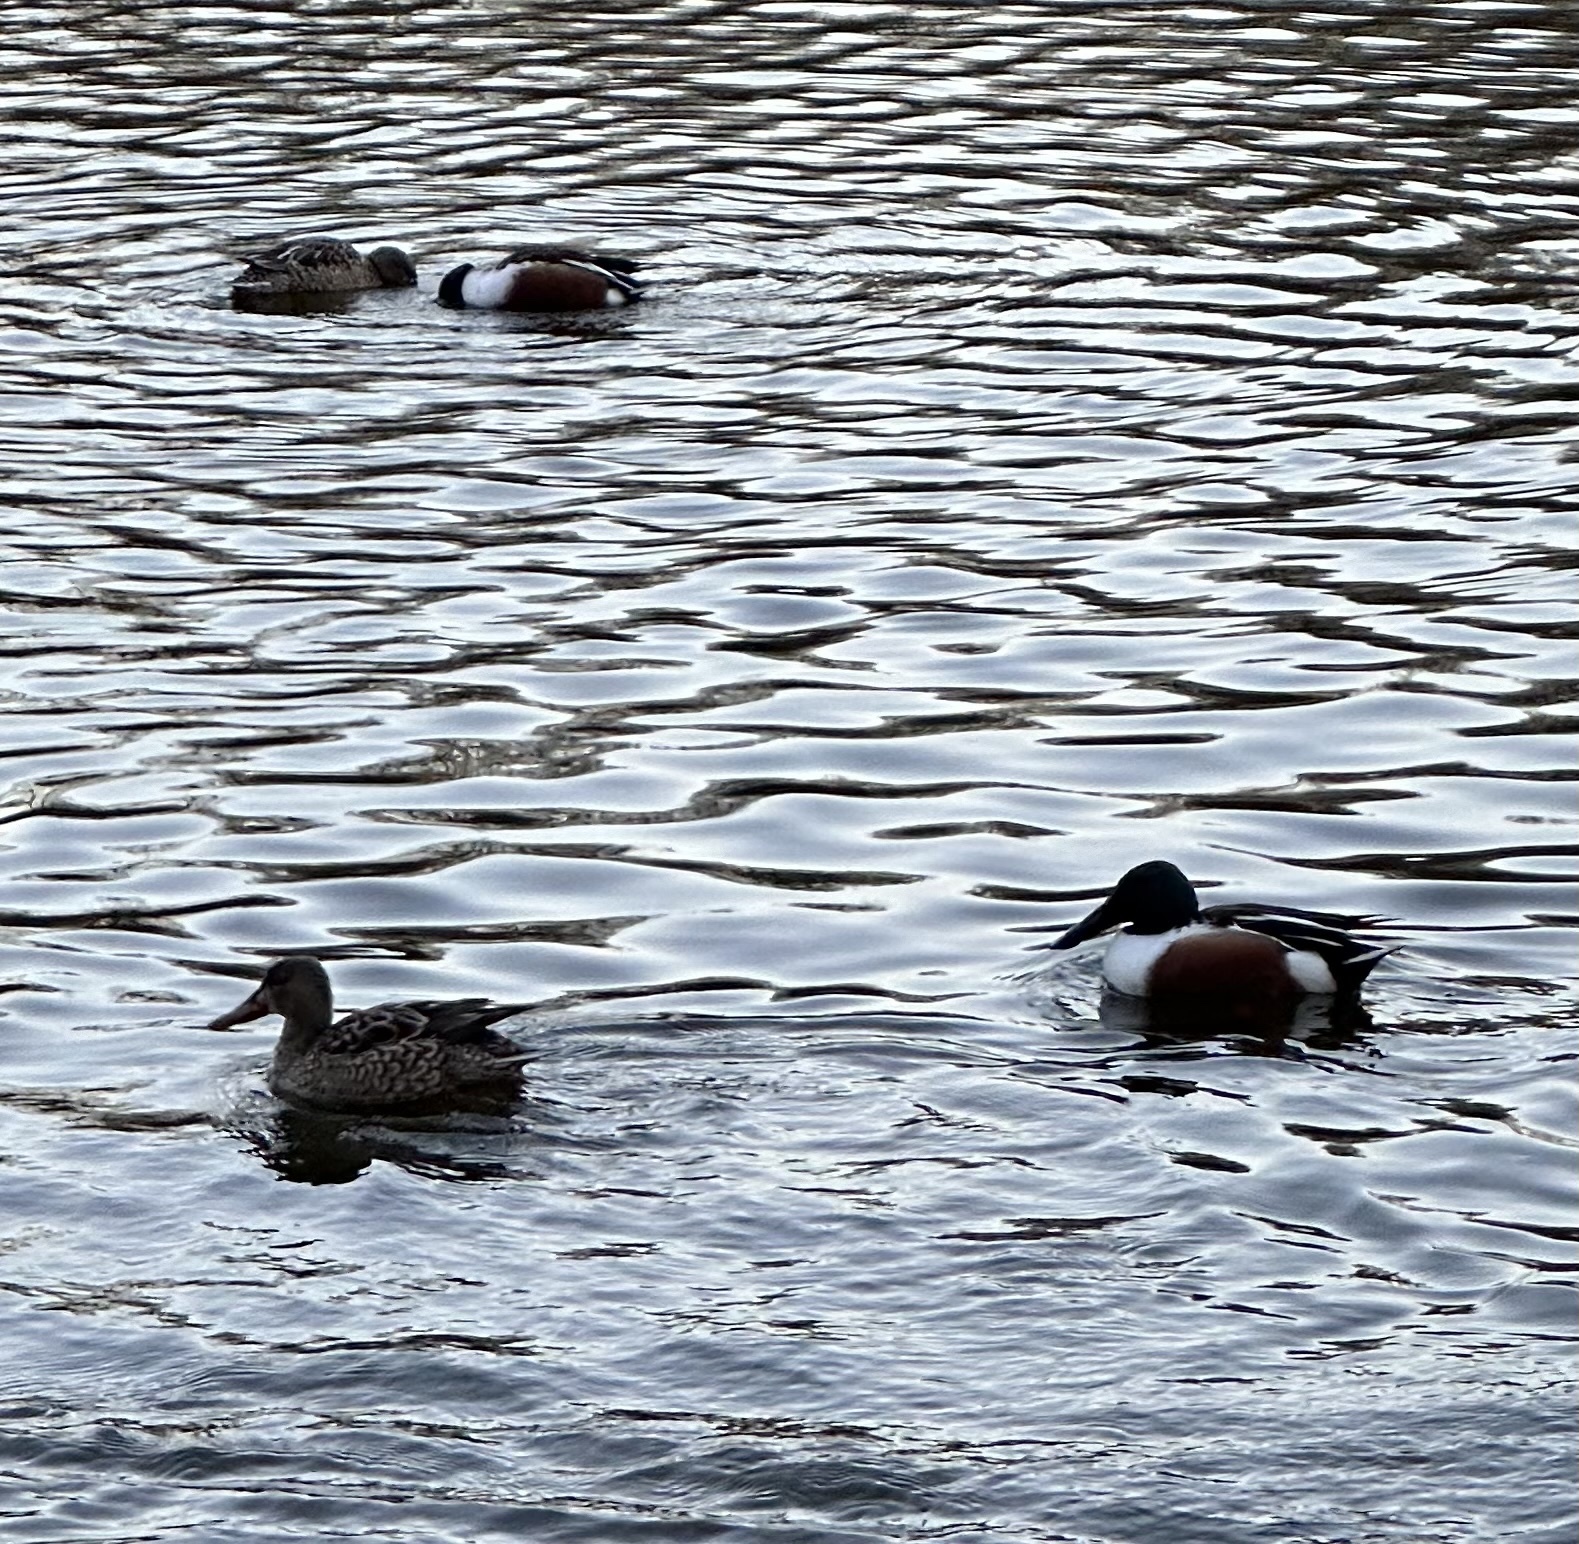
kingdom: Animalia
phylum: Chordata
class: Aves
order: Anseriformes
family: Anatidae
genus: Spatula
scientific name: Spatula clypeata
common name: Northern shoveler
